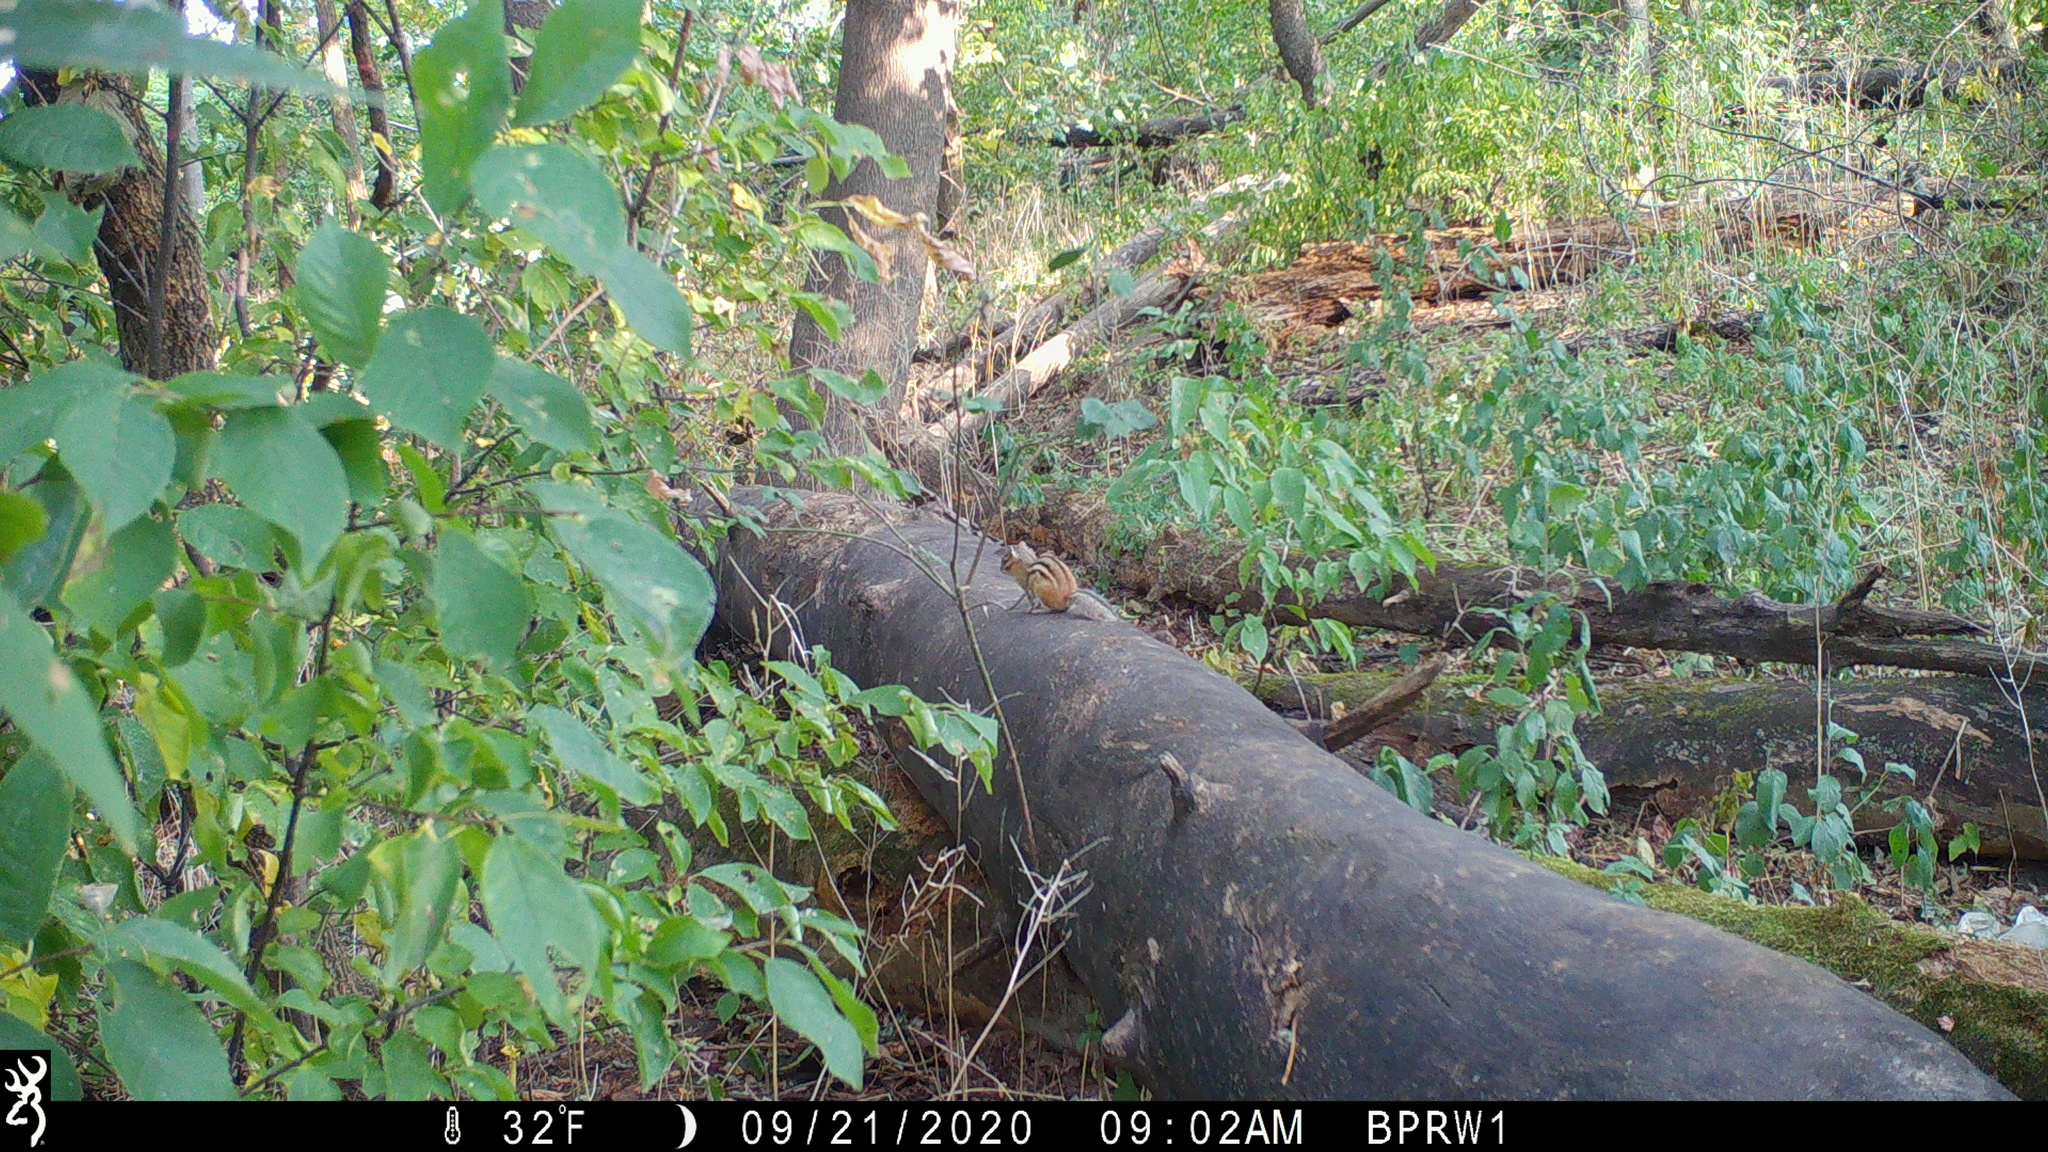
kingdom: Animalia
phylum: Chordata
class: Mammalia
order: Rodentia
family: Sciuridae
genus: Tamias
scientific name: Tamias striatus
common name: Eastern chipmunk
